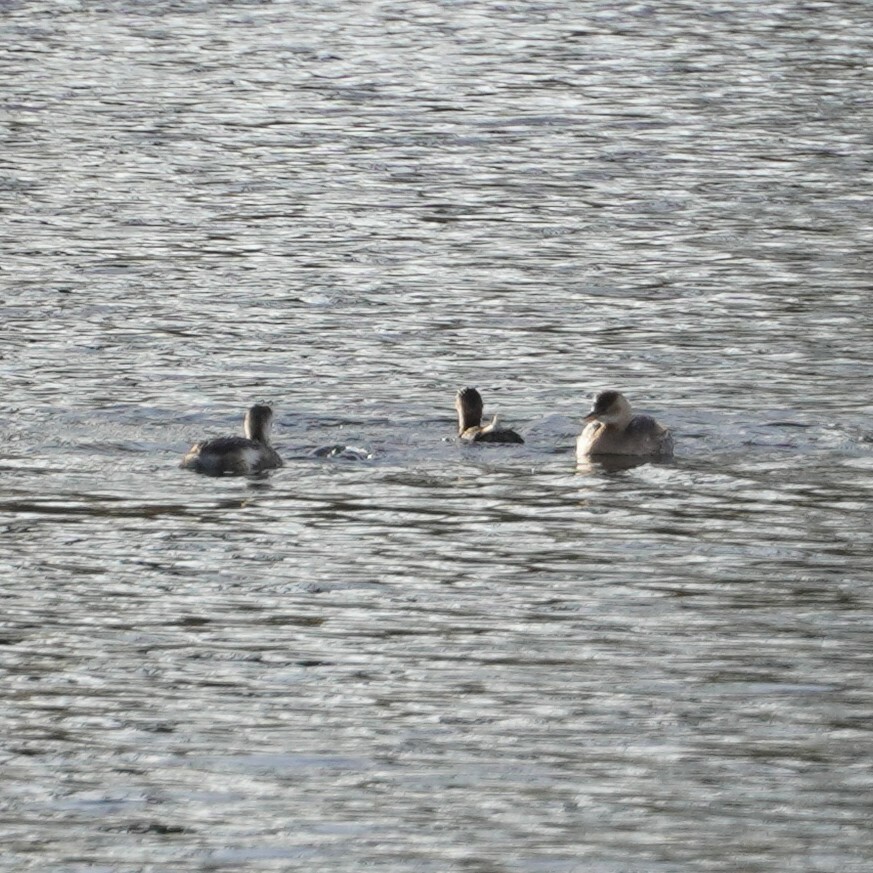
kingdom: Animalia
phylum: Chordata
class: Aves
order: Podicipediformes
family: Podicipedidae
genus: Tachybaptus
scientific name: Tachybaptus ruficollis
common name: Little grebe
